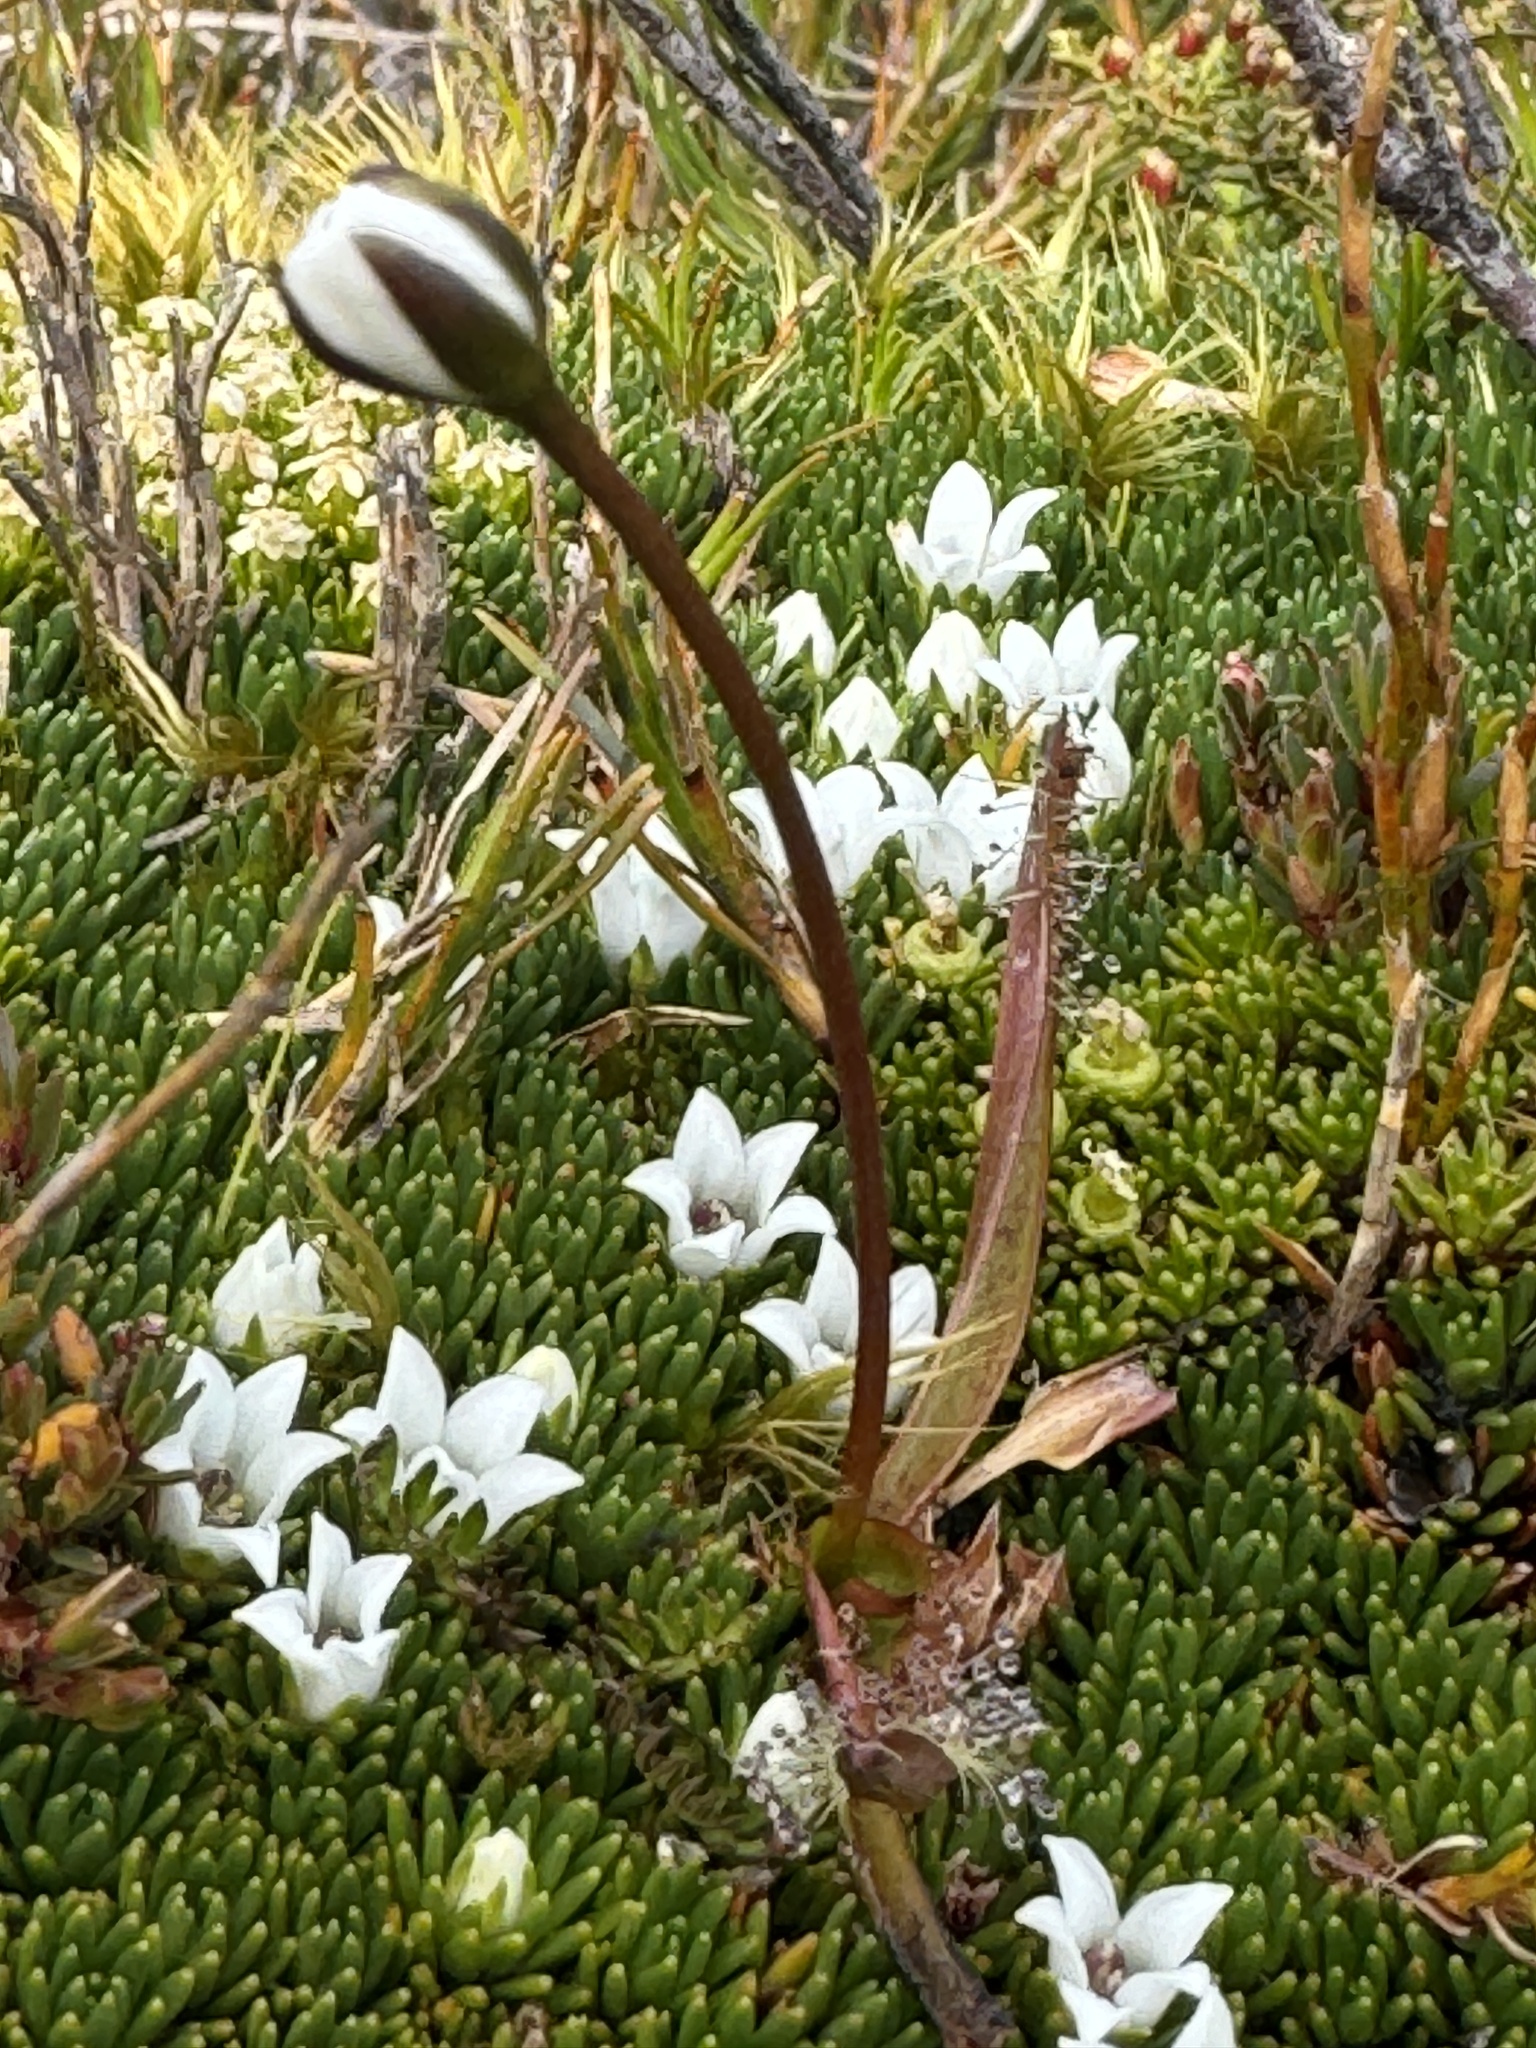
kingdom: Plantae
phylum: Tracheophyta
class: Magnoliopsida
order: Caryophyllales
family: Droseraceae
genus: Drosera
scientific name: Drosera arcturi
